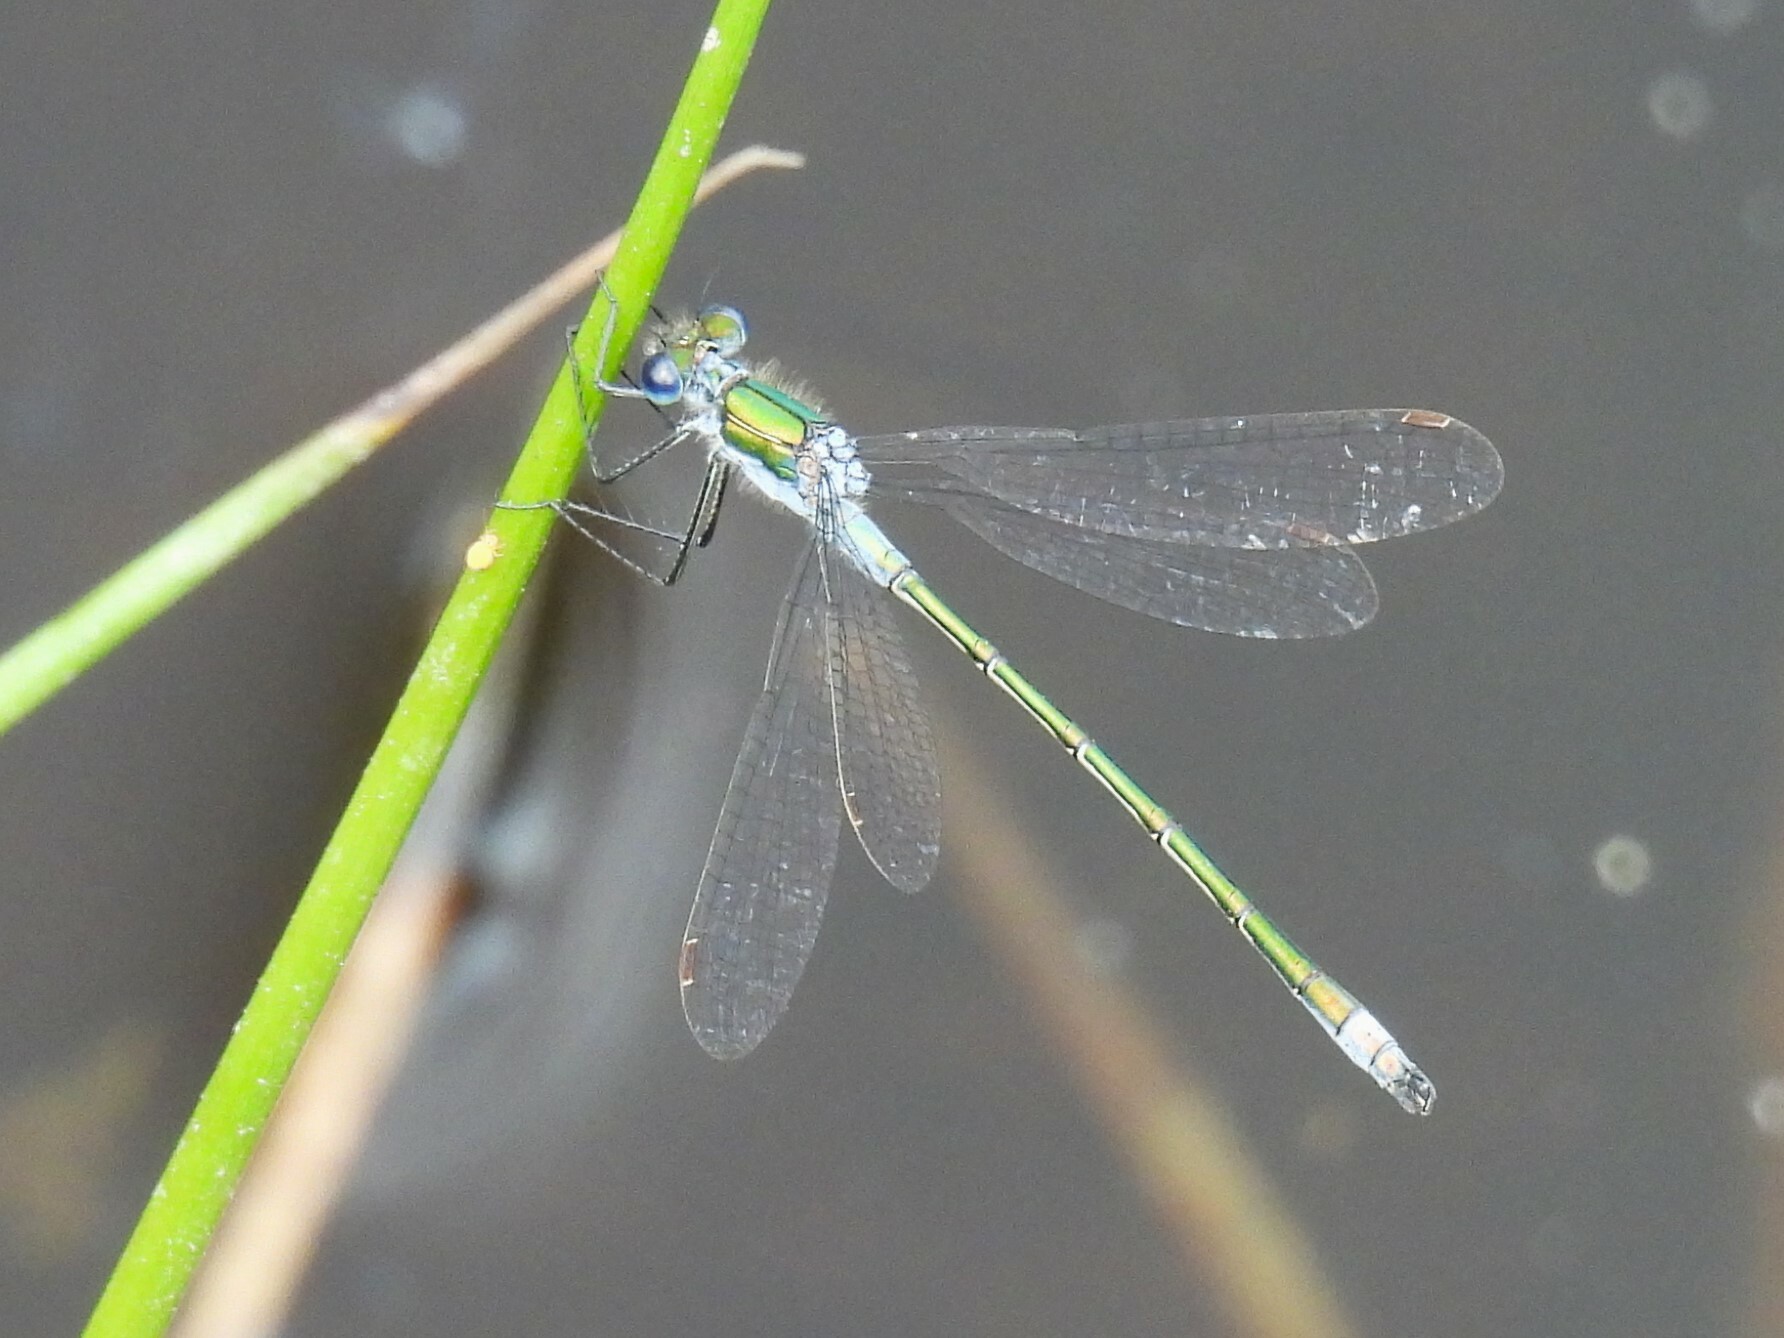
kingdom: Animalia
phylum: Arthropoda
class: Insecta
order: Odonata
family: Lestidae
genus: Lestes
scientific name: Lestes sponsa
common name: Common spreadwing
